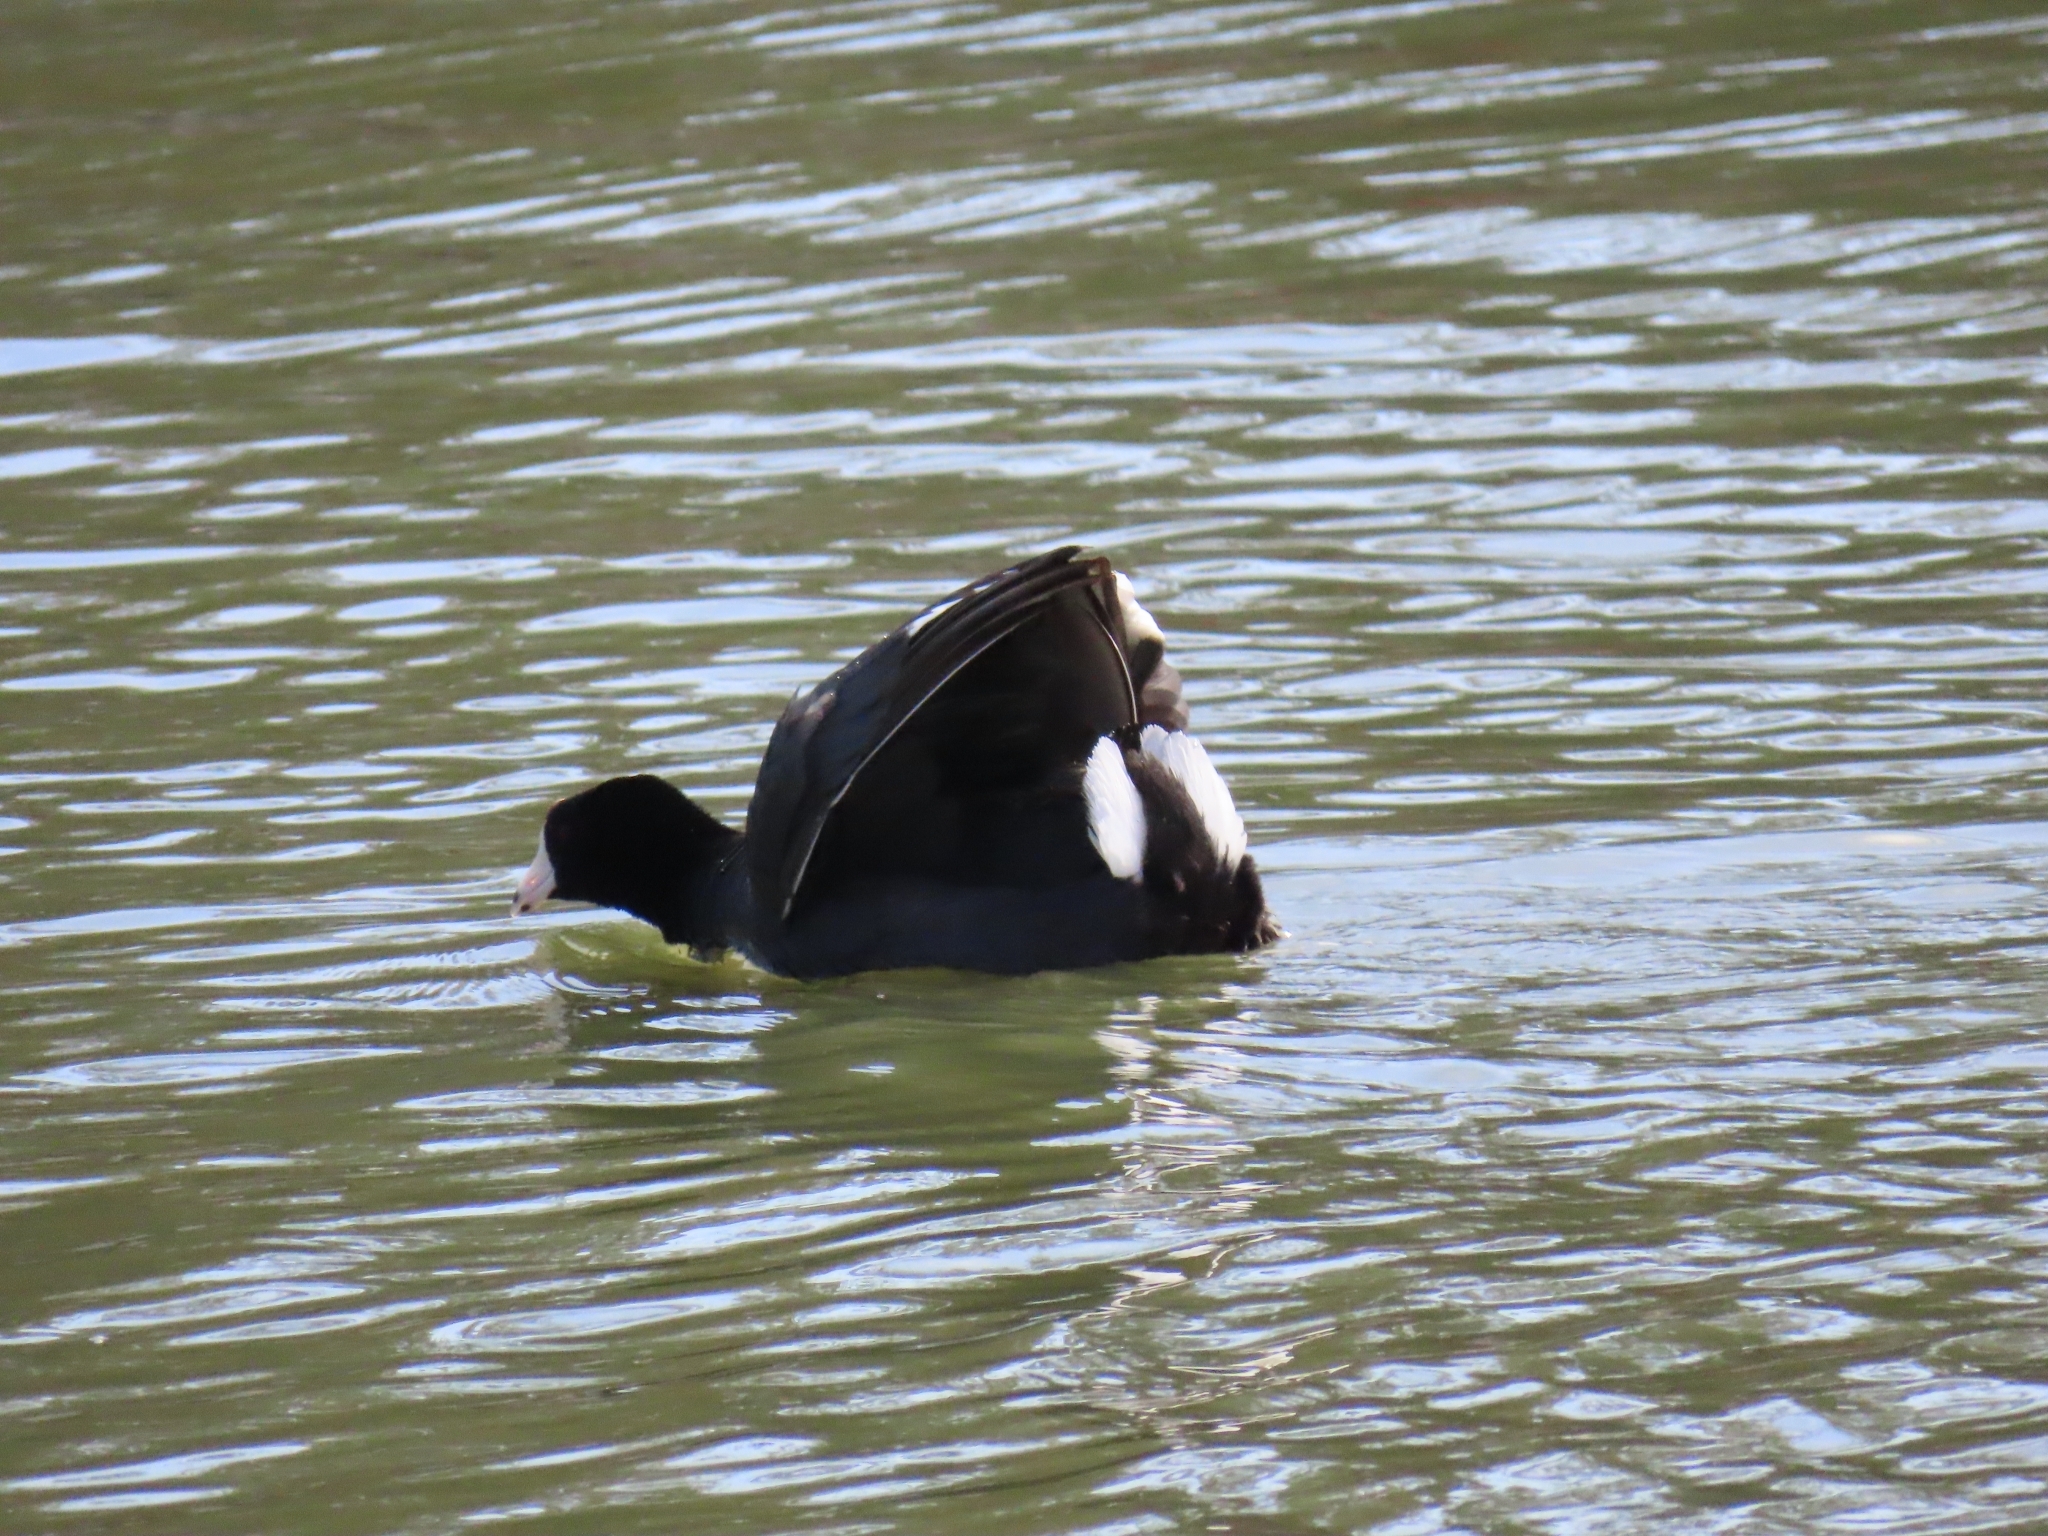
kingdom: Animalia
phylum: Chordata
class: Aves
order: Gruiformes
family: Rallidae
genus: Fulica
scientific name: Fulica americana
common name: American coot
